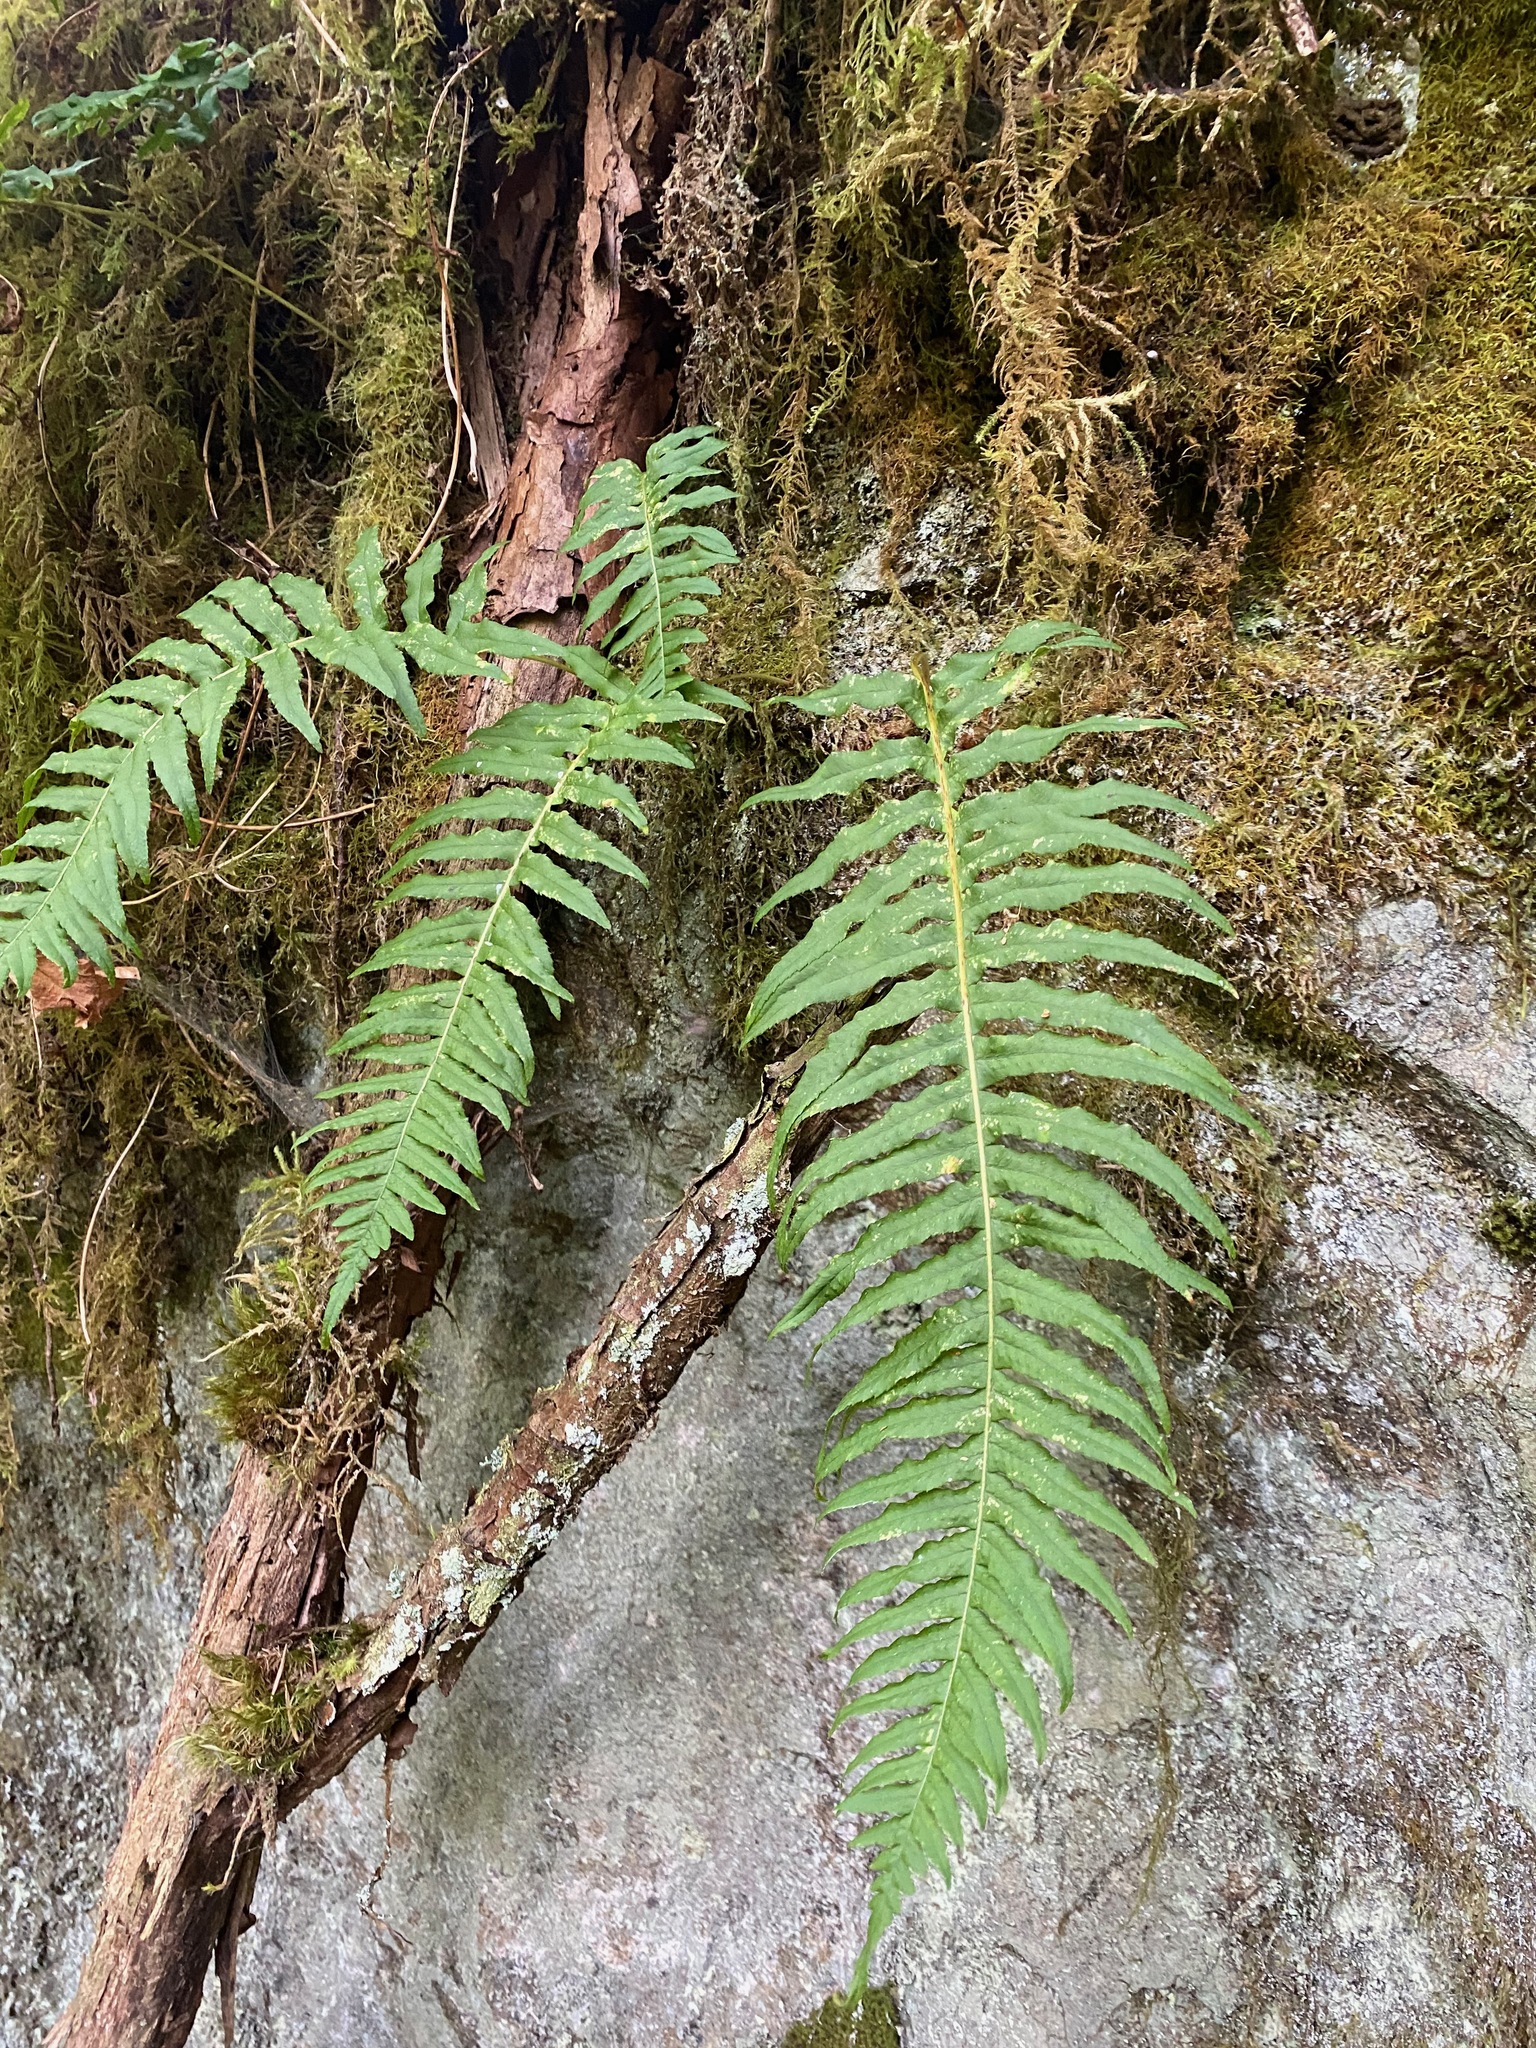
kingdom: Plantae
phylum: Tracheophyta
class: Polypodiopsida
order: Polypodiales
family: Polypodiaceae
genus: Polypodium
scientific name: Polypodium glycyrrhiza
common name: Licorice fern
